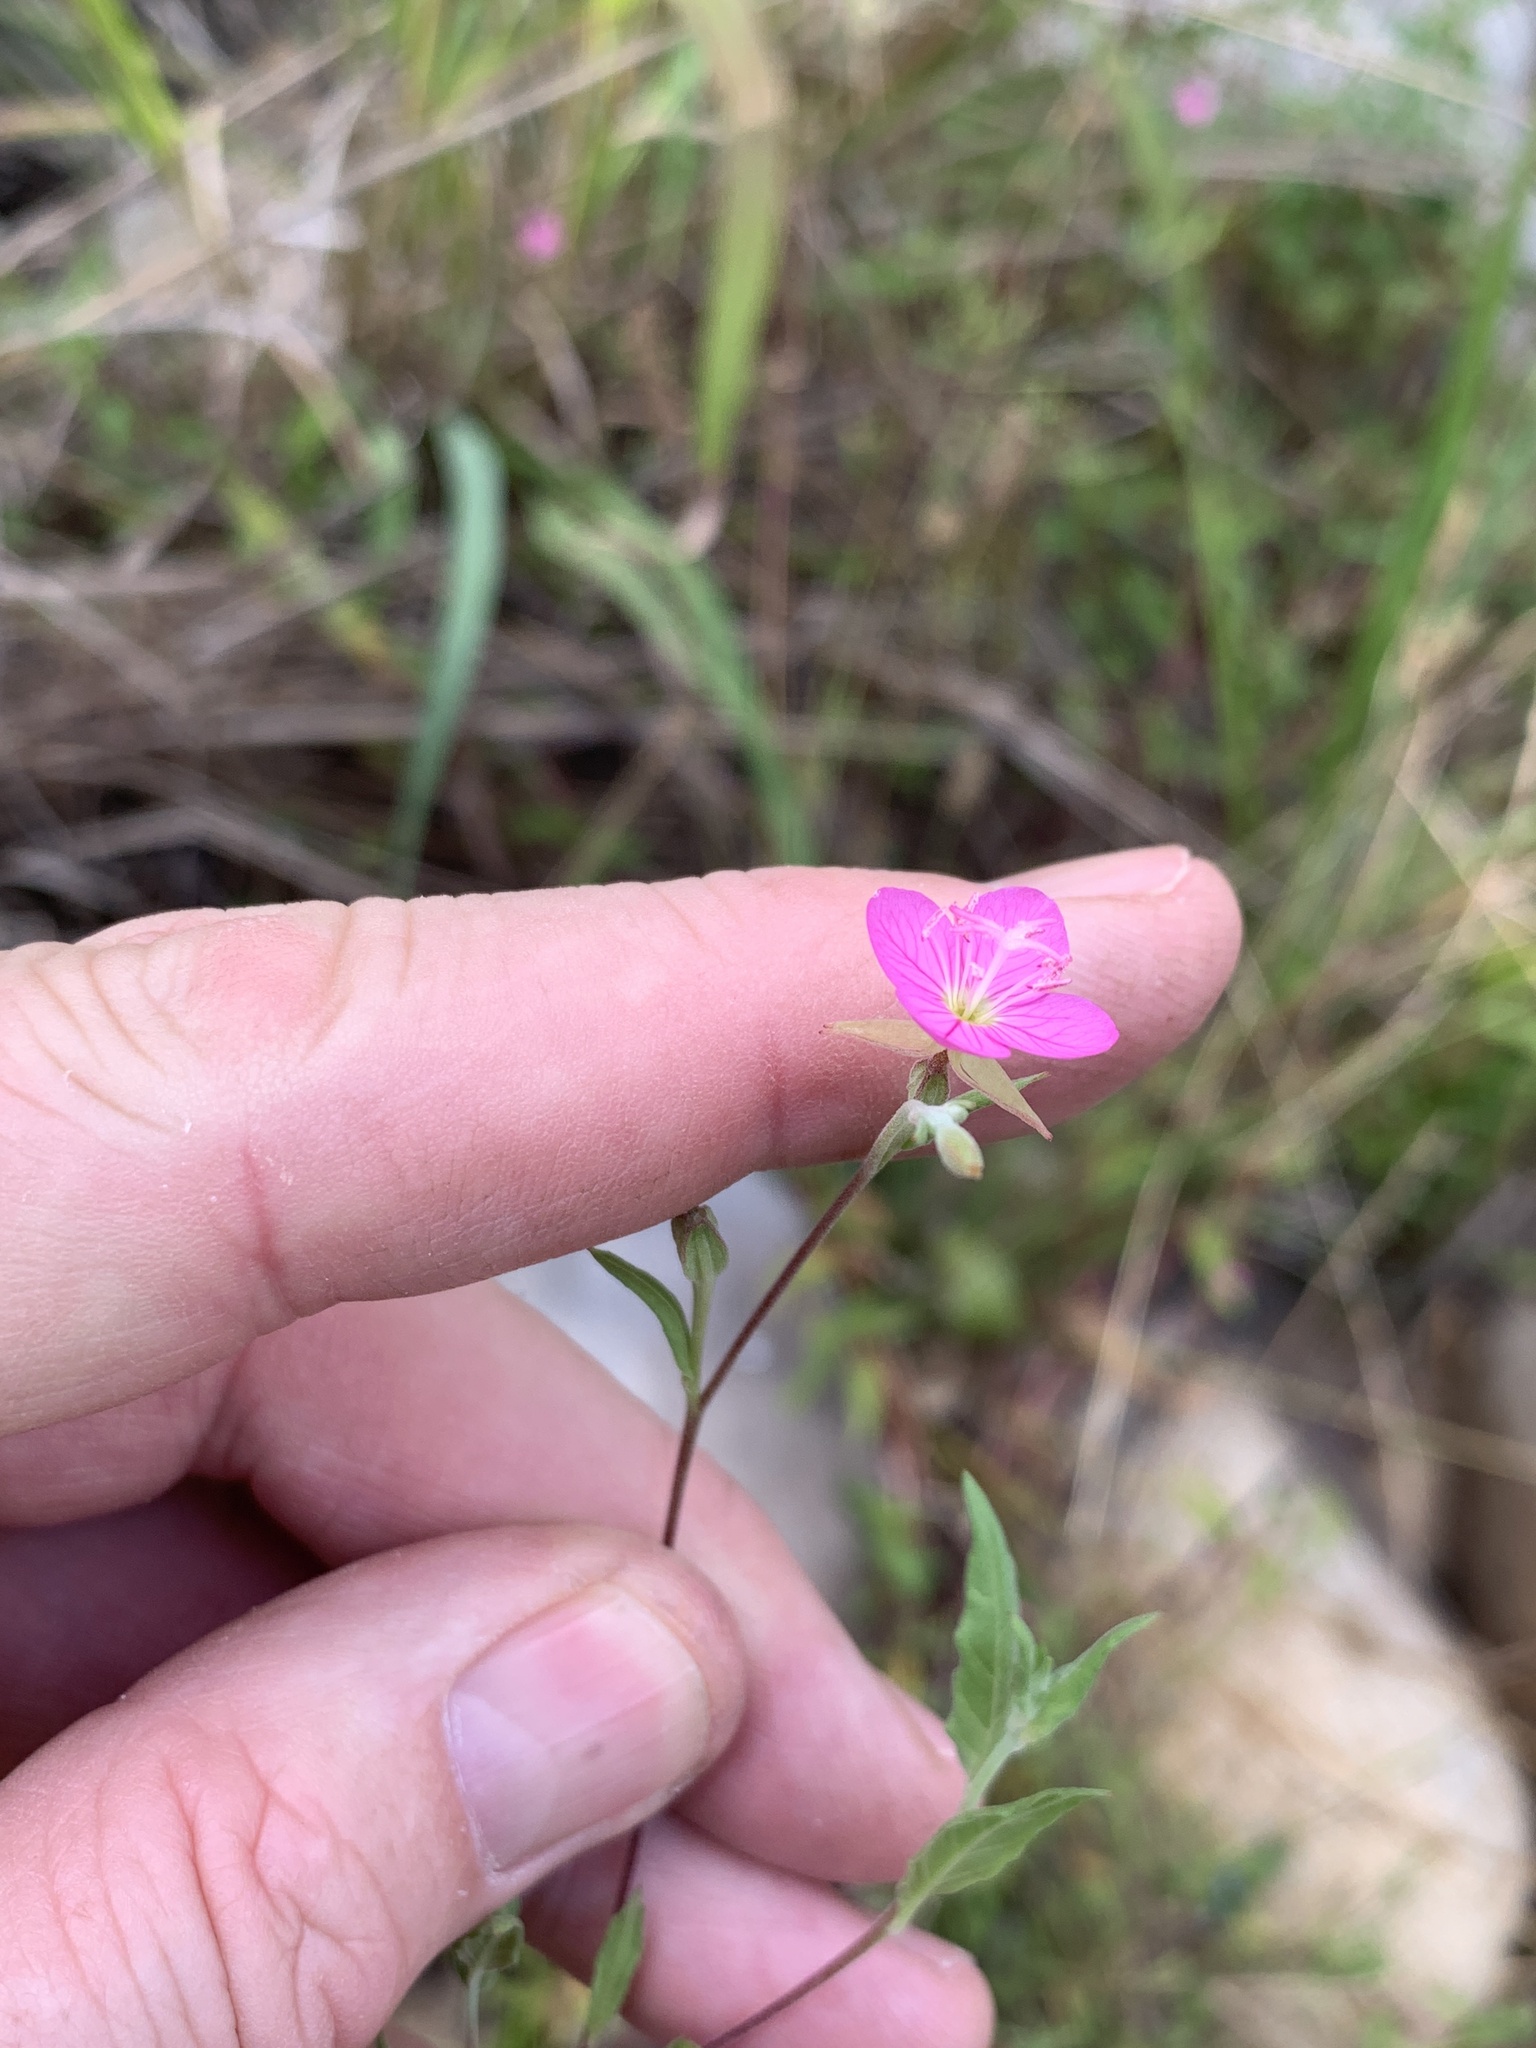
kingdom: Plantae
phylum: Tracheophyta
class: Magnoliopsida
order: Myrtales
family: Onagraceae
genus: Oenothera
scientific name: Oenothera rosea
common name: Rosy evening-primrose
